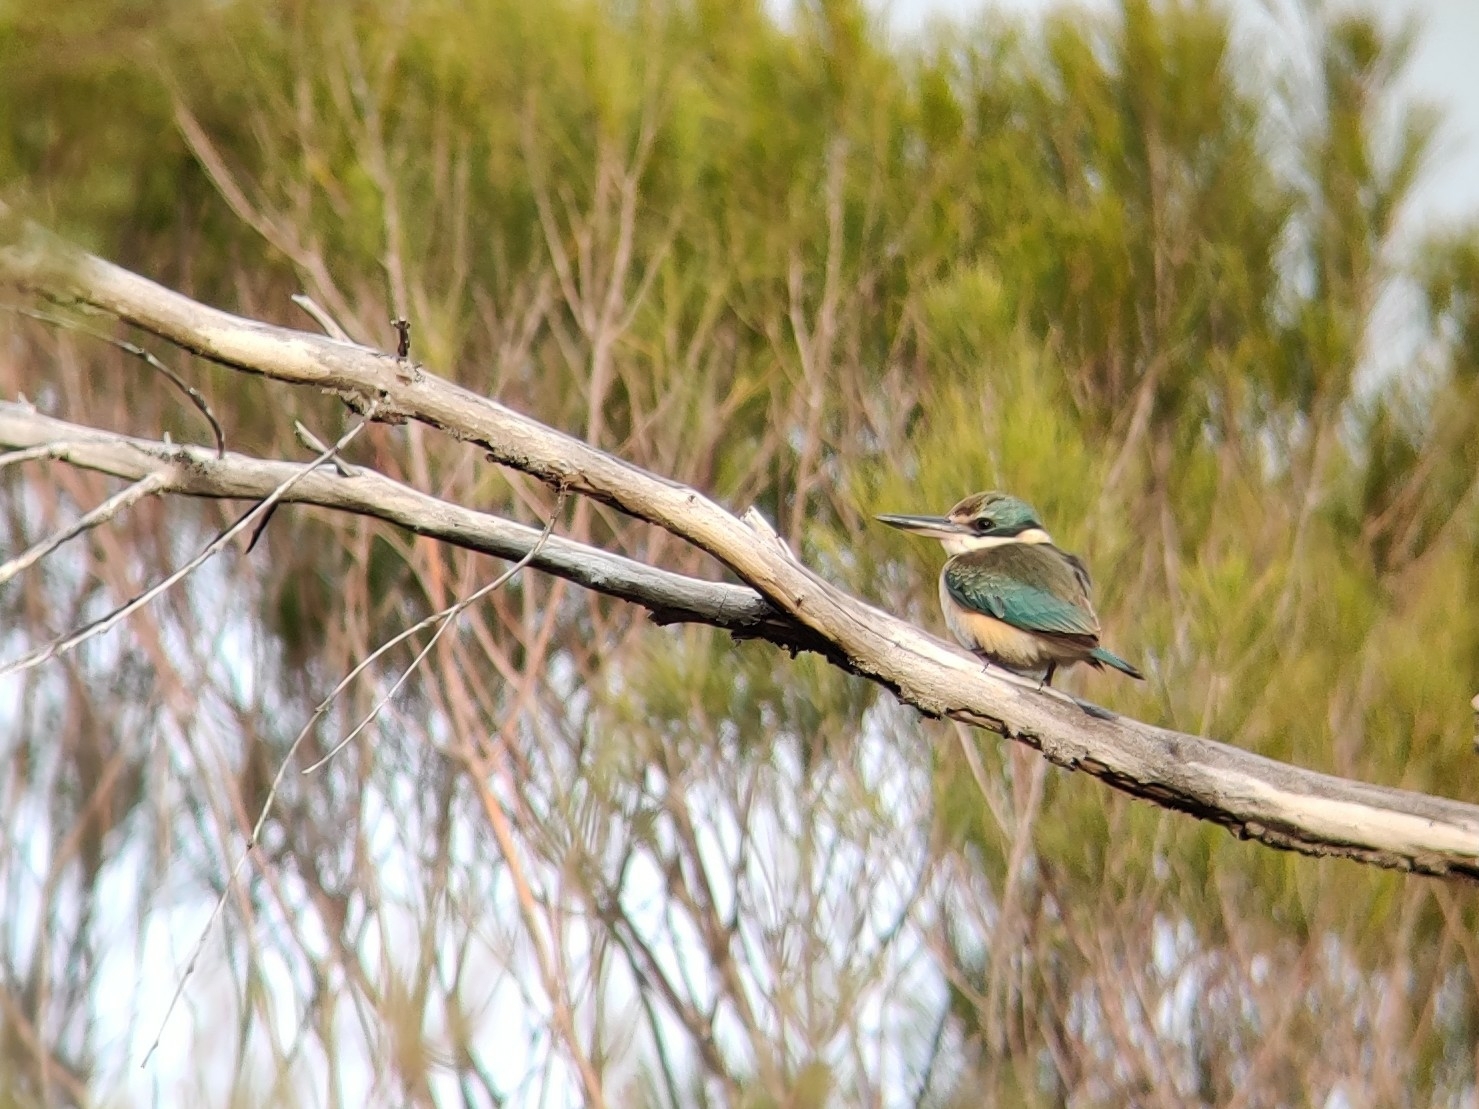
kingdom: Animalia
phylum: Chordata
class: Aves
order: Coraciiformes
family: Alcedinidae
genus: Todiramphus
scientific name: Todiramphus sanctus
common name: Sacred kingfisher
